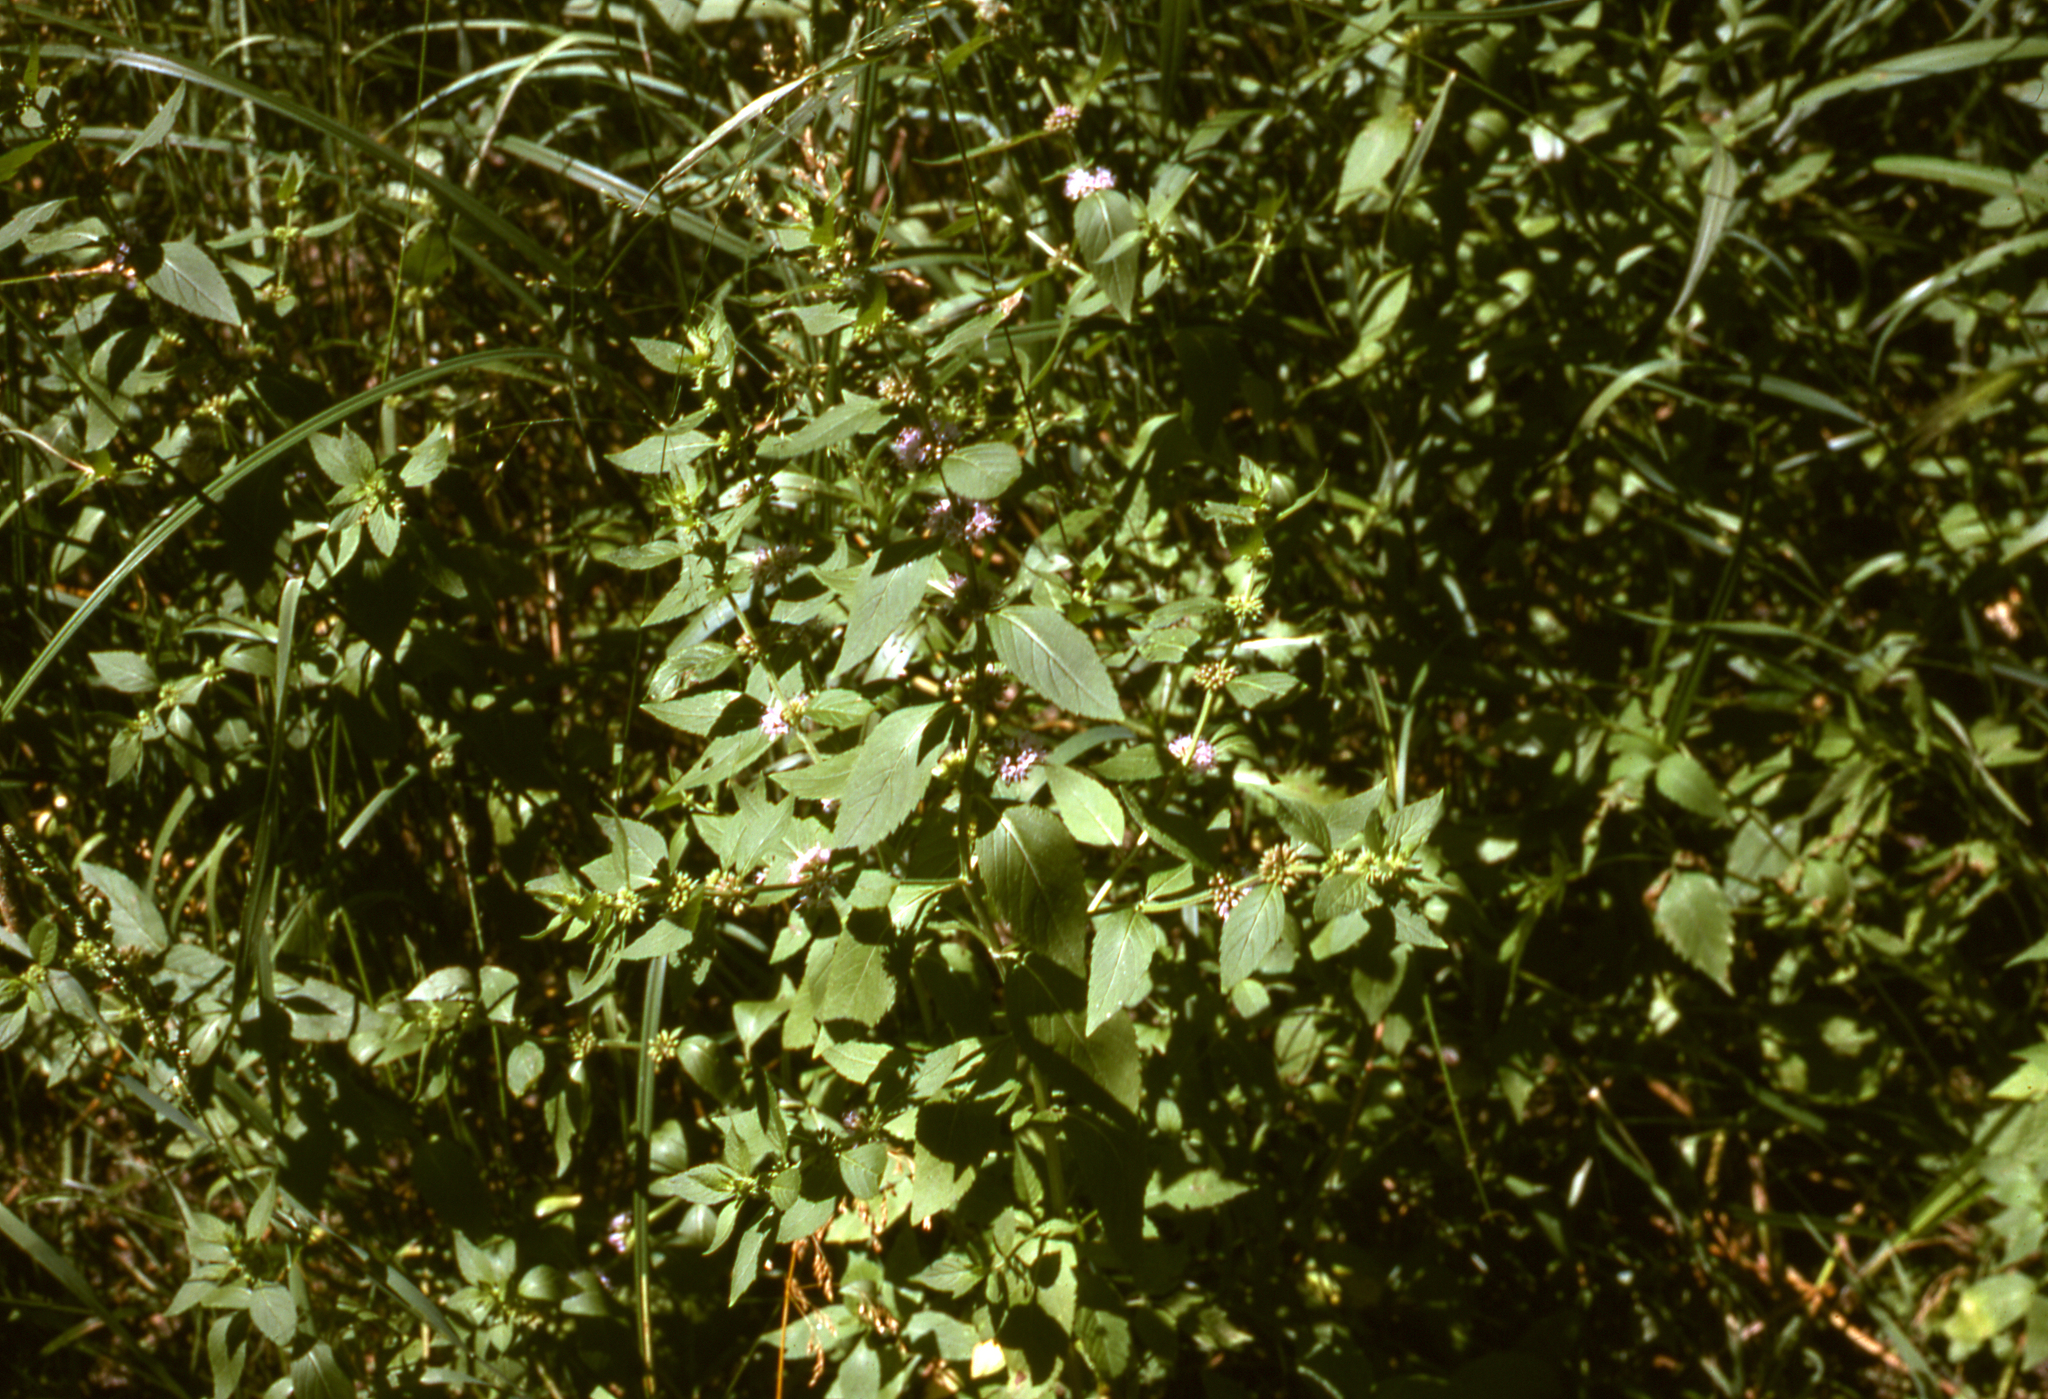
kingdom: Plantae
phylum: Tracheophyta
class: Magnoliopsida
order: Lamiales
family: Lamiaceae
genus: Mentha
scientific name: Mentha canadensis
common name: American corn mint
